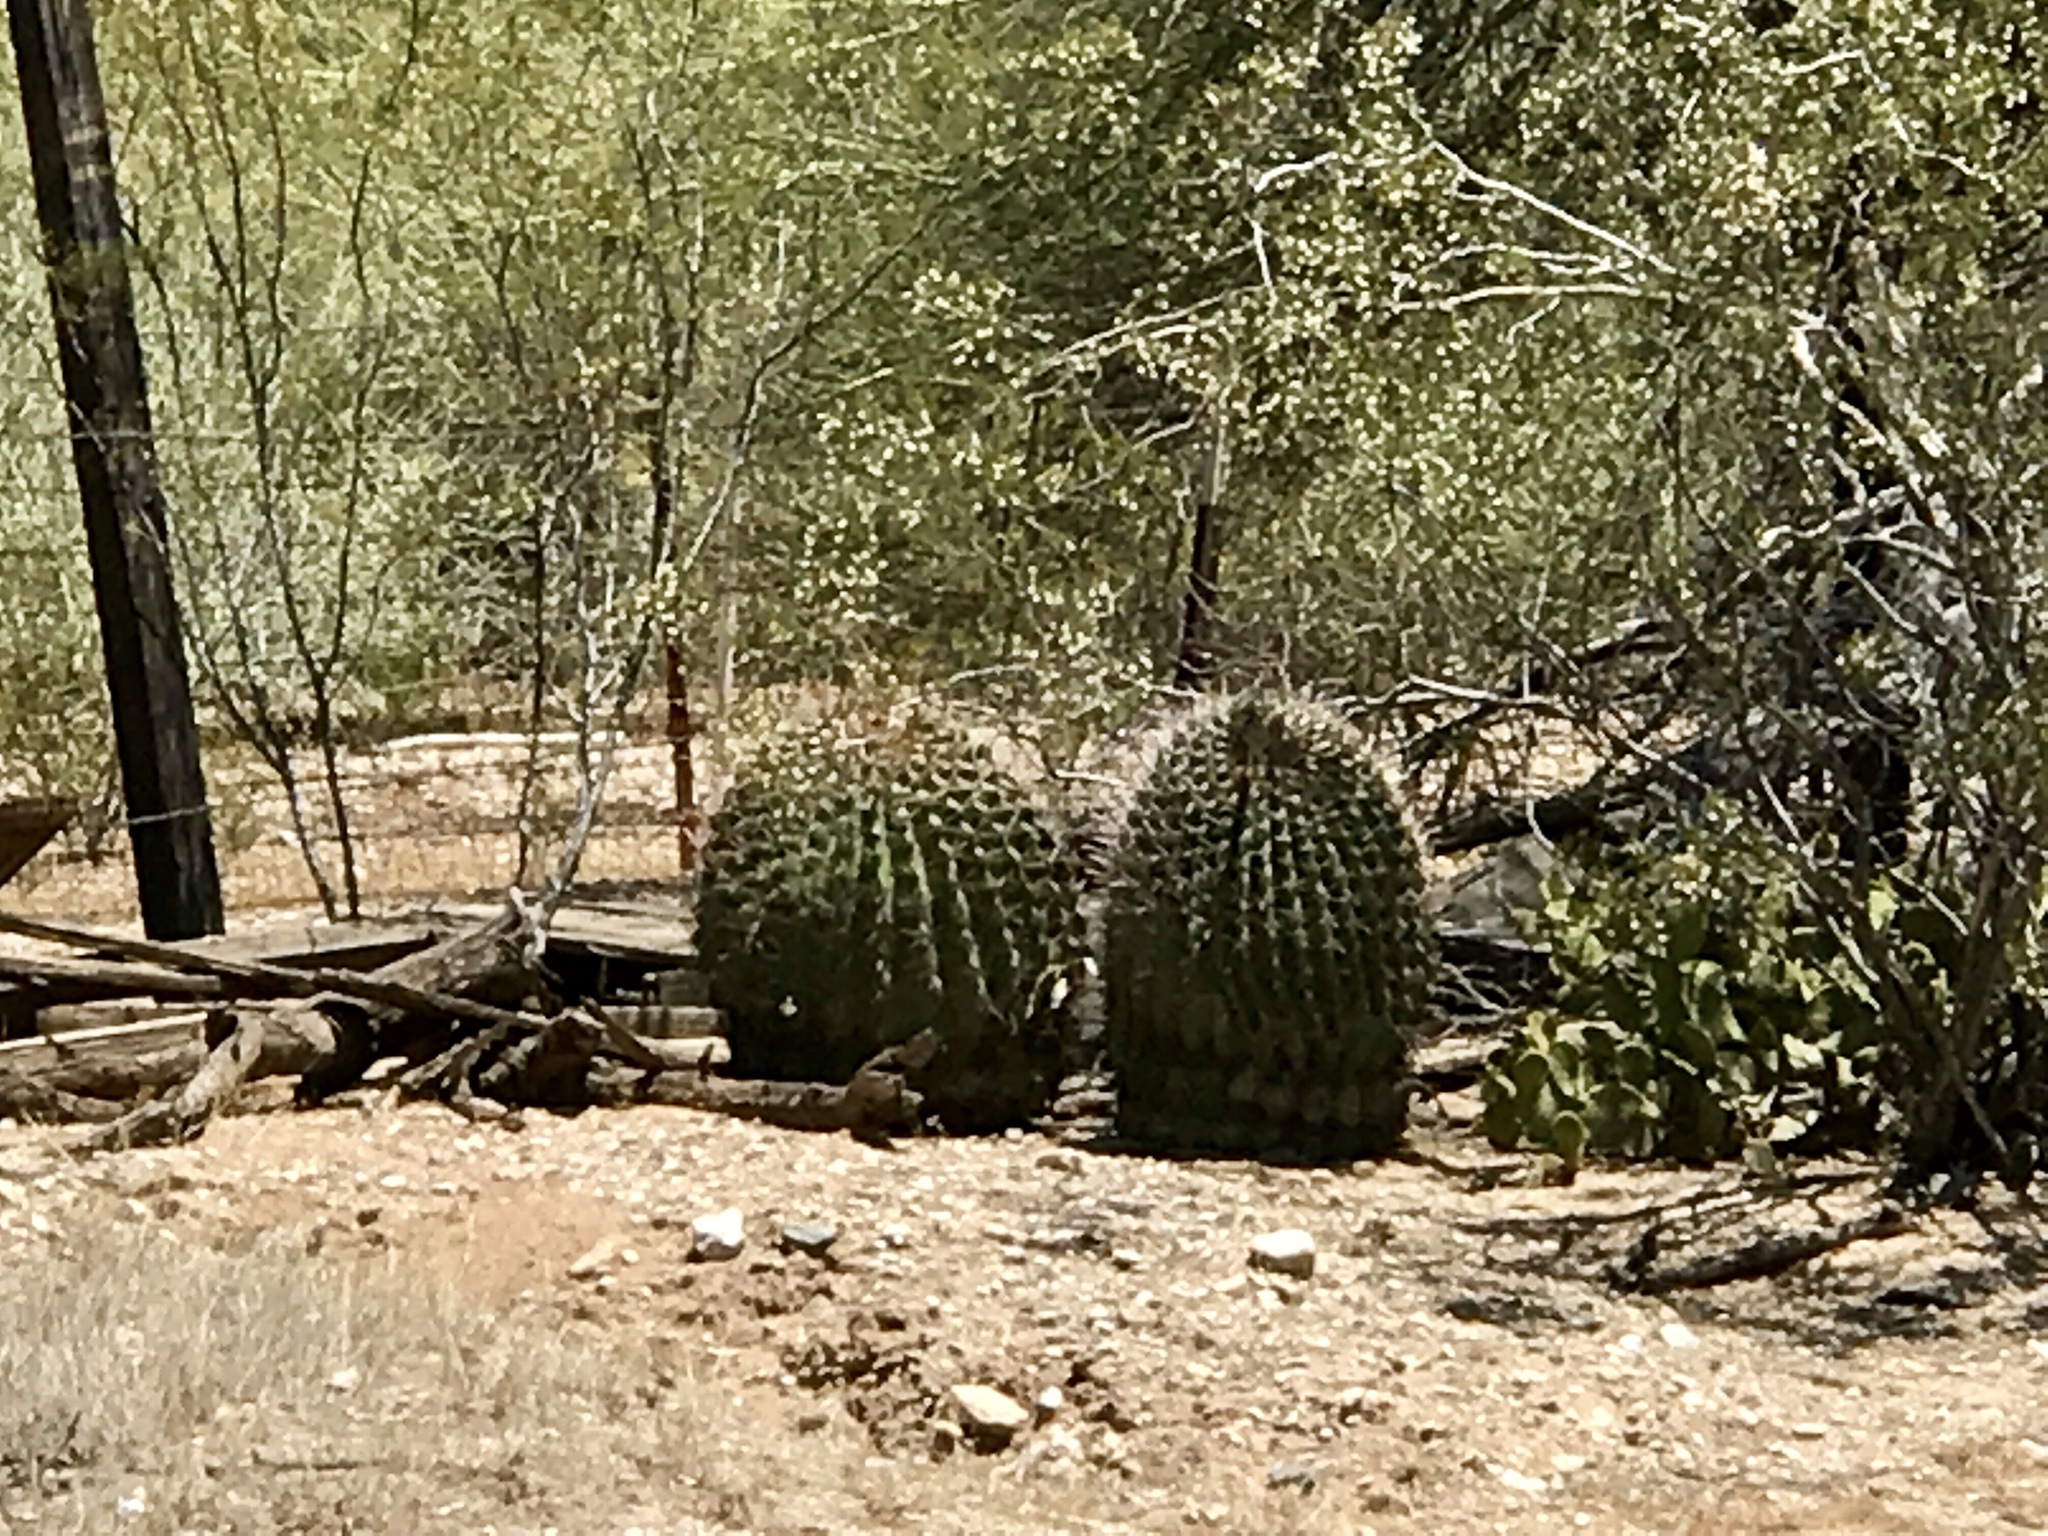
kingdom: Plantae
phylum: Tracheophyta
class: Magnoliopsida
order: Caryophyllales
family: Cactaceae
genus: Ferocactus
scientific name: Ferocactus wislizeni
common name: Candy barrel cactus
